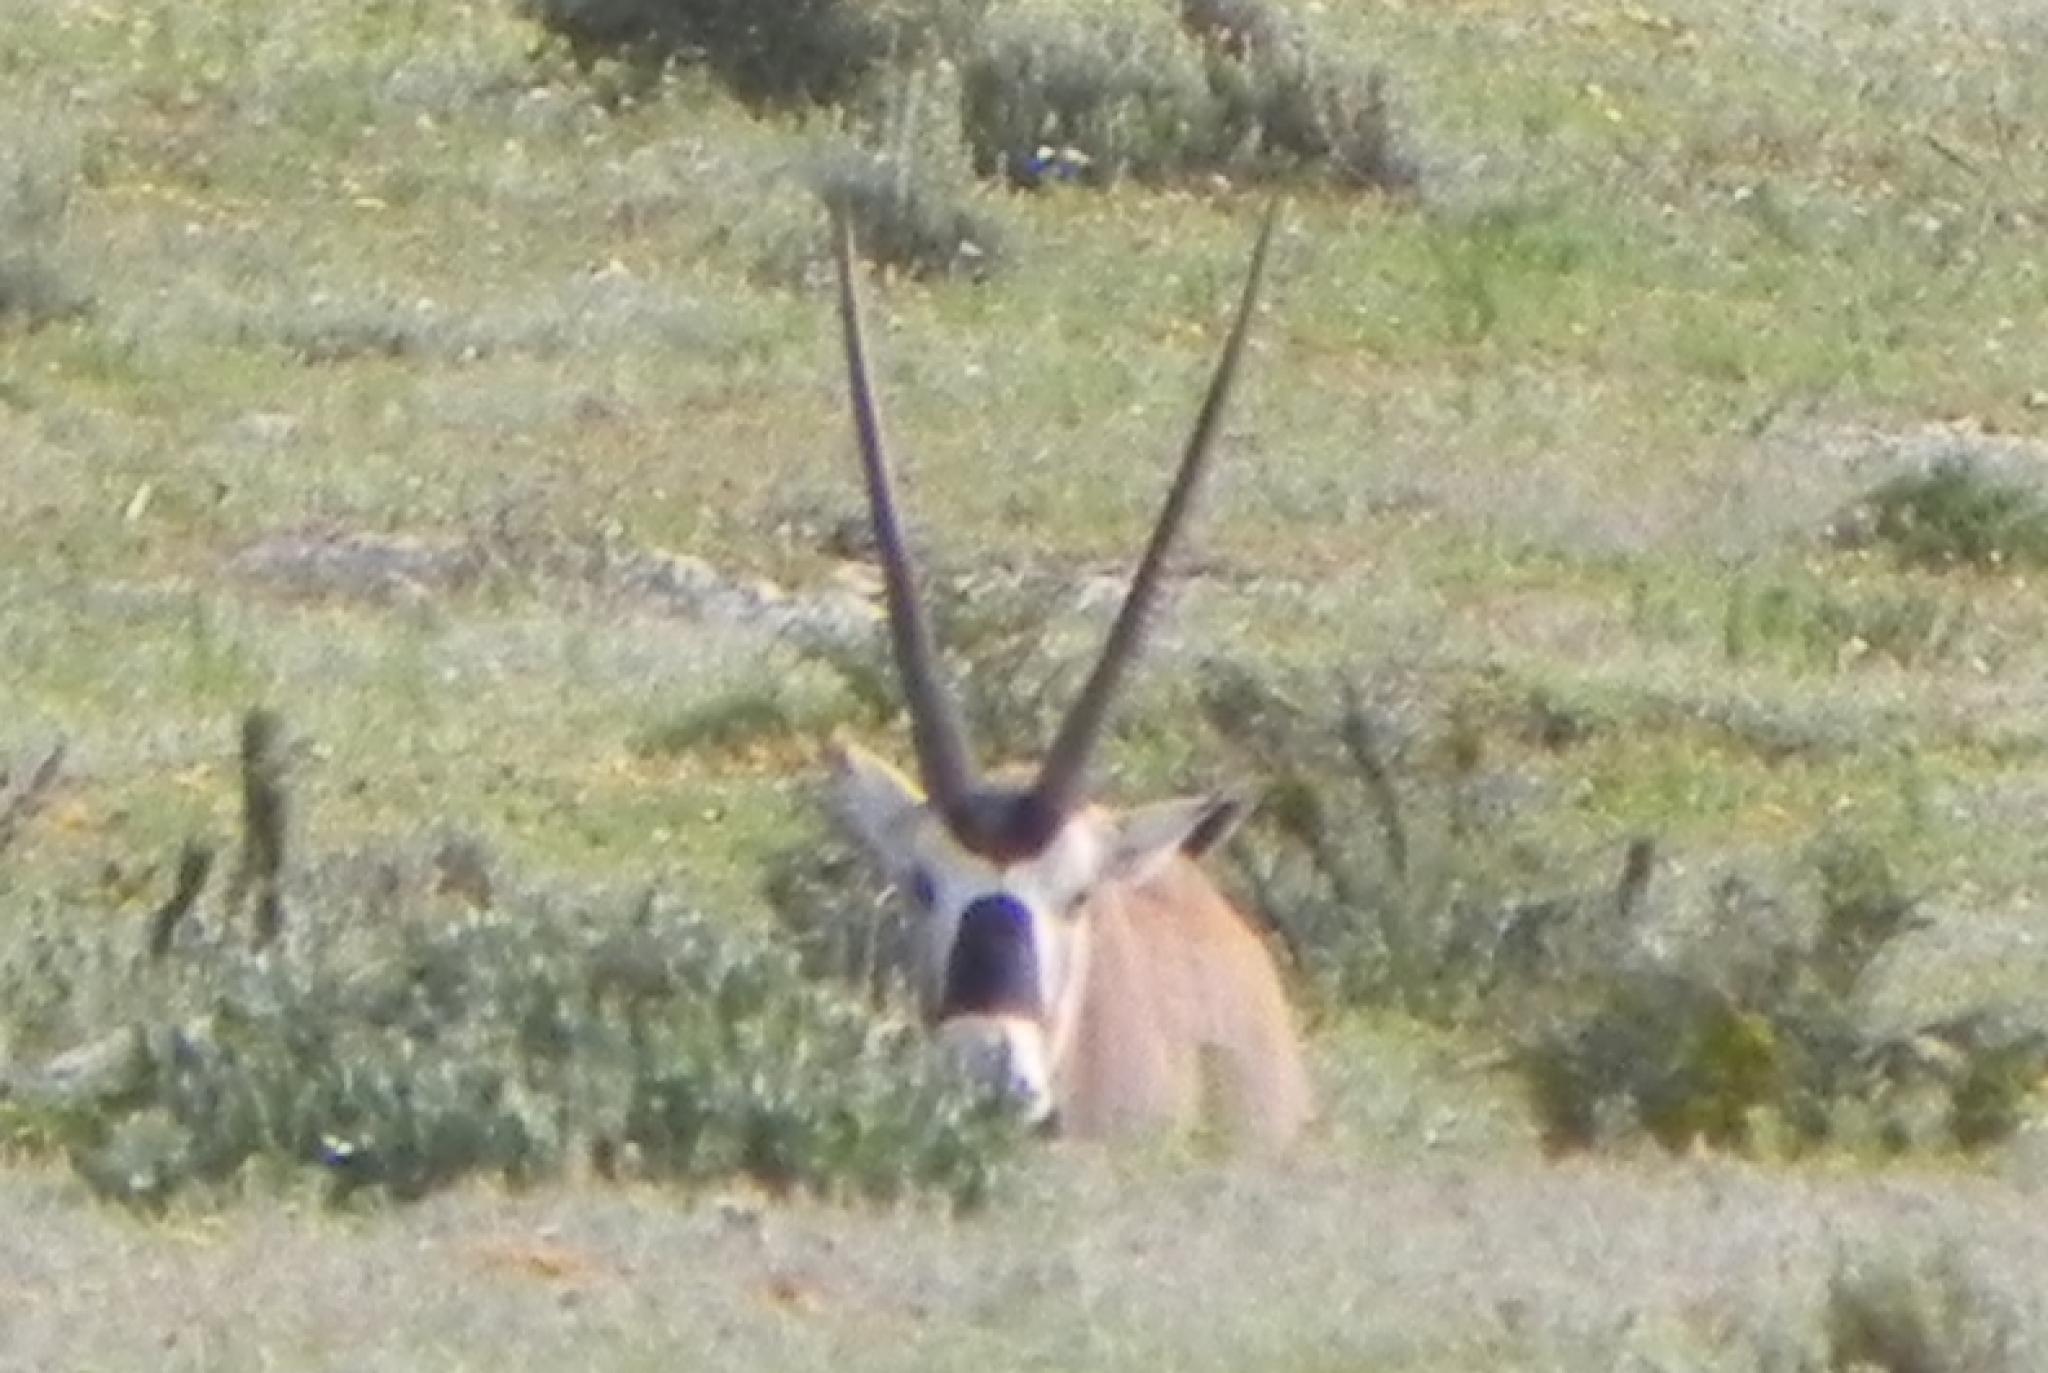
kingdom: Animalia
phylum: Chordata
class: Mammalia
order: Artiodactyla
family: Bovidae
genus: Oryx
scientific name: Oryx gazella
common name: Gemsbok
